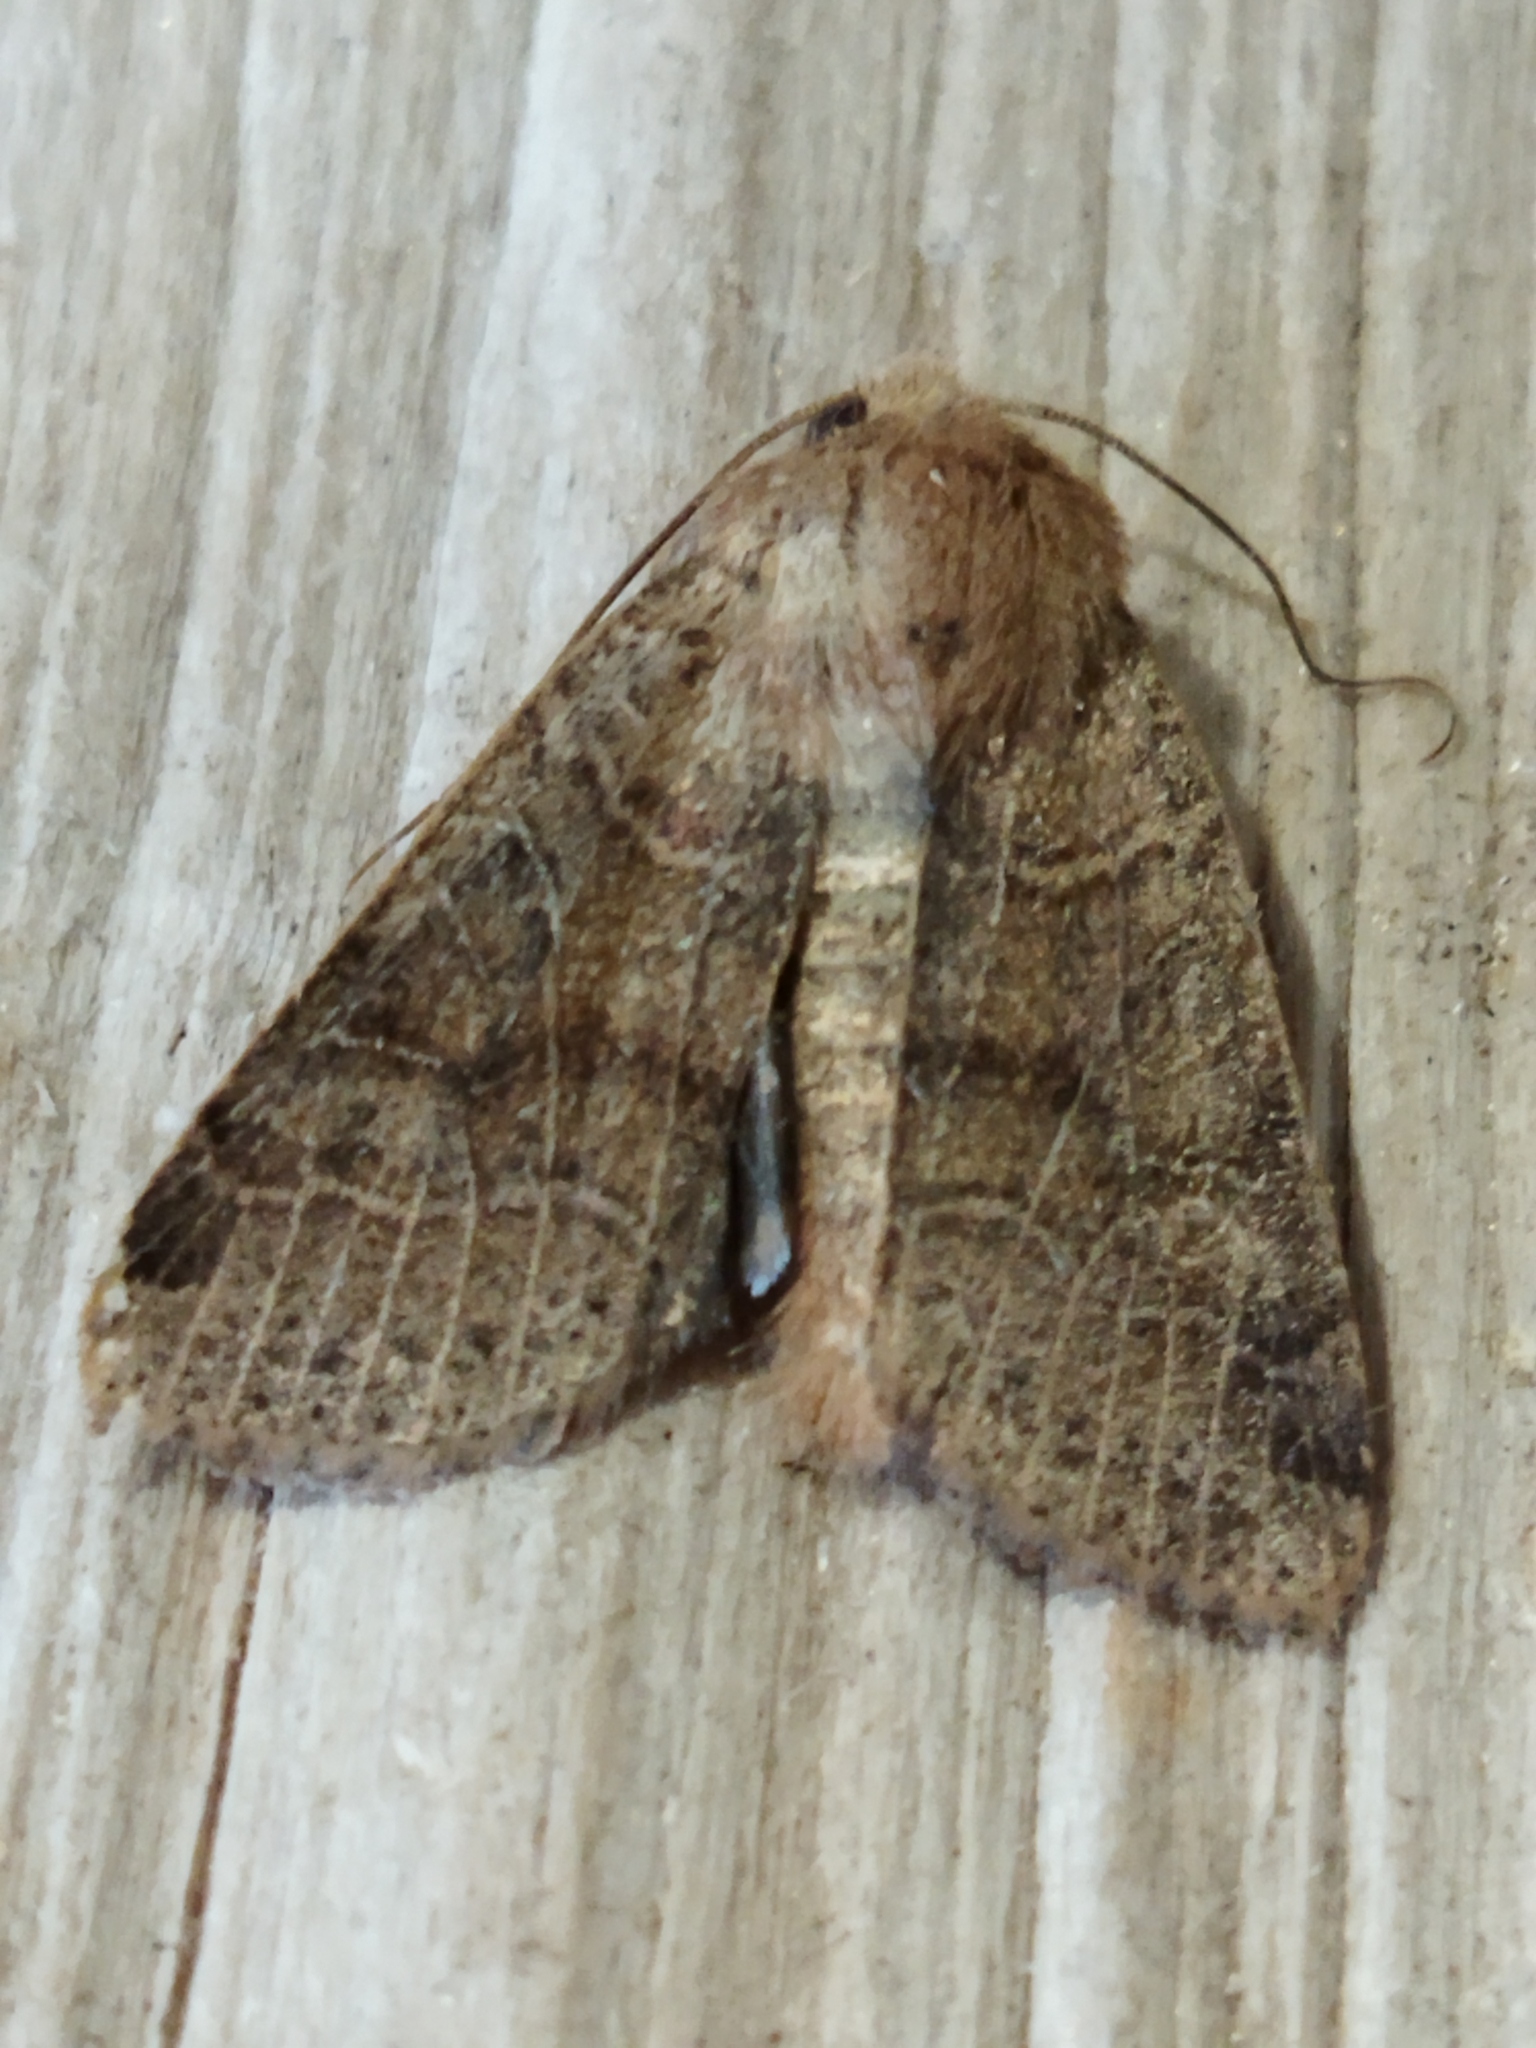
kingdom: Animalia
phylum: Arthropoda
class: Insecta
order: Lepidoptera
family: Noctuidae
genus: Agrochola
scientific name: Agrochola nitida
